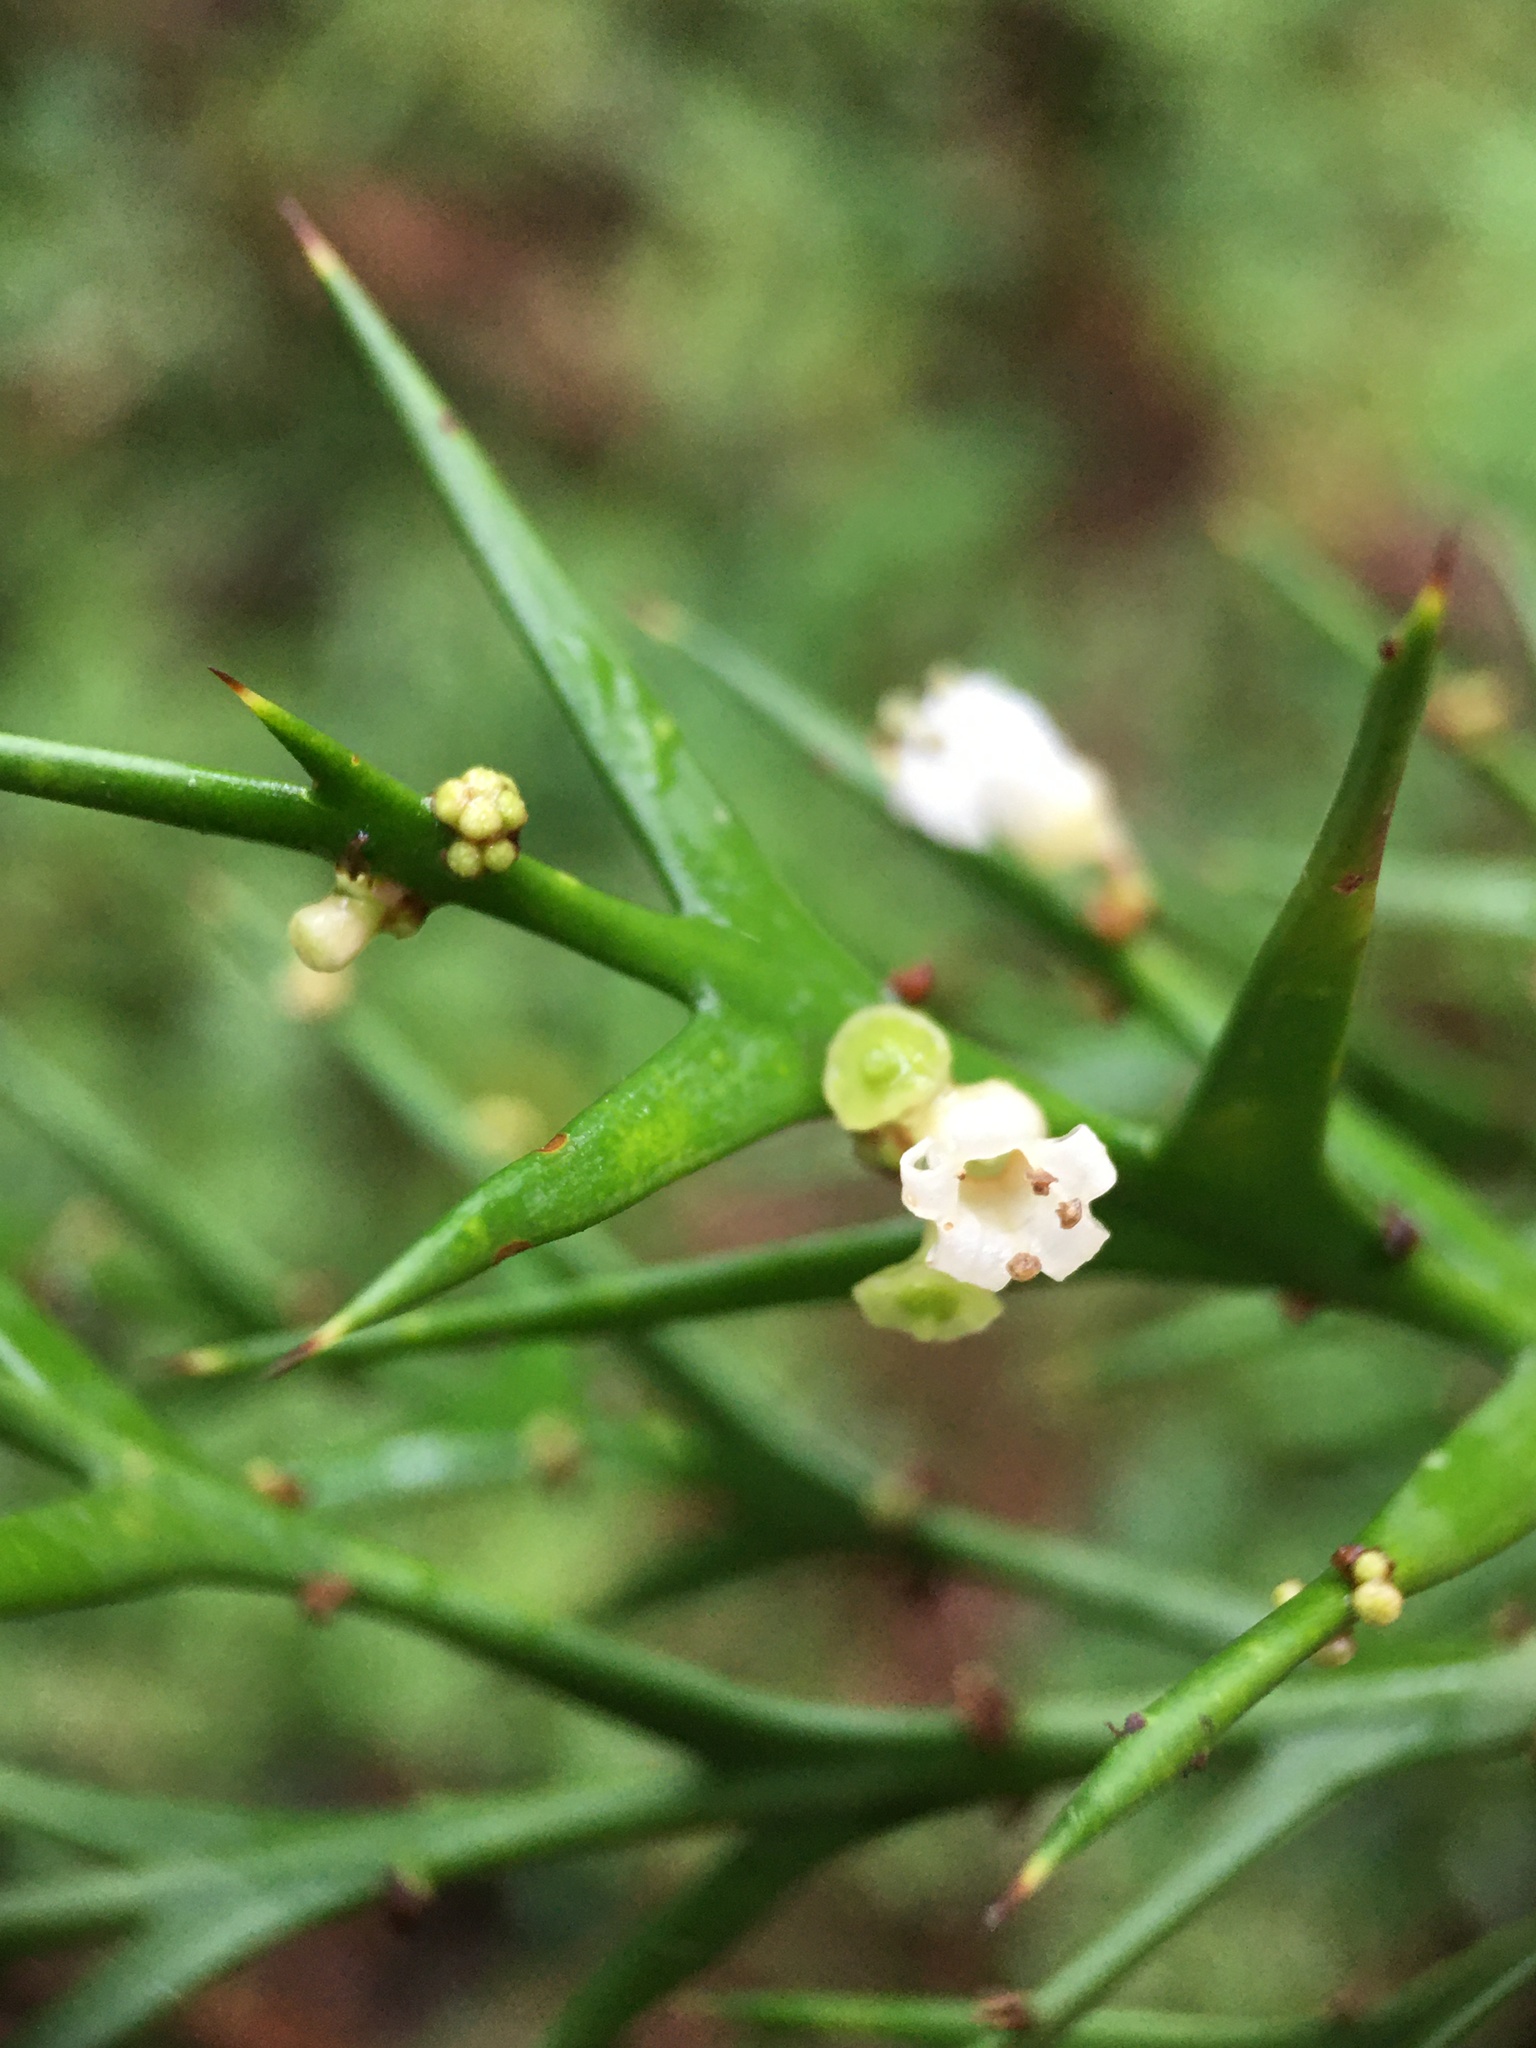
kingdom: Plantae
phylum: Tracheophyta
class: Magnoliopsida
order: Rosales
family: Rhamnaceae
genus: Colletia
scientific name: Colletia paradoxa
